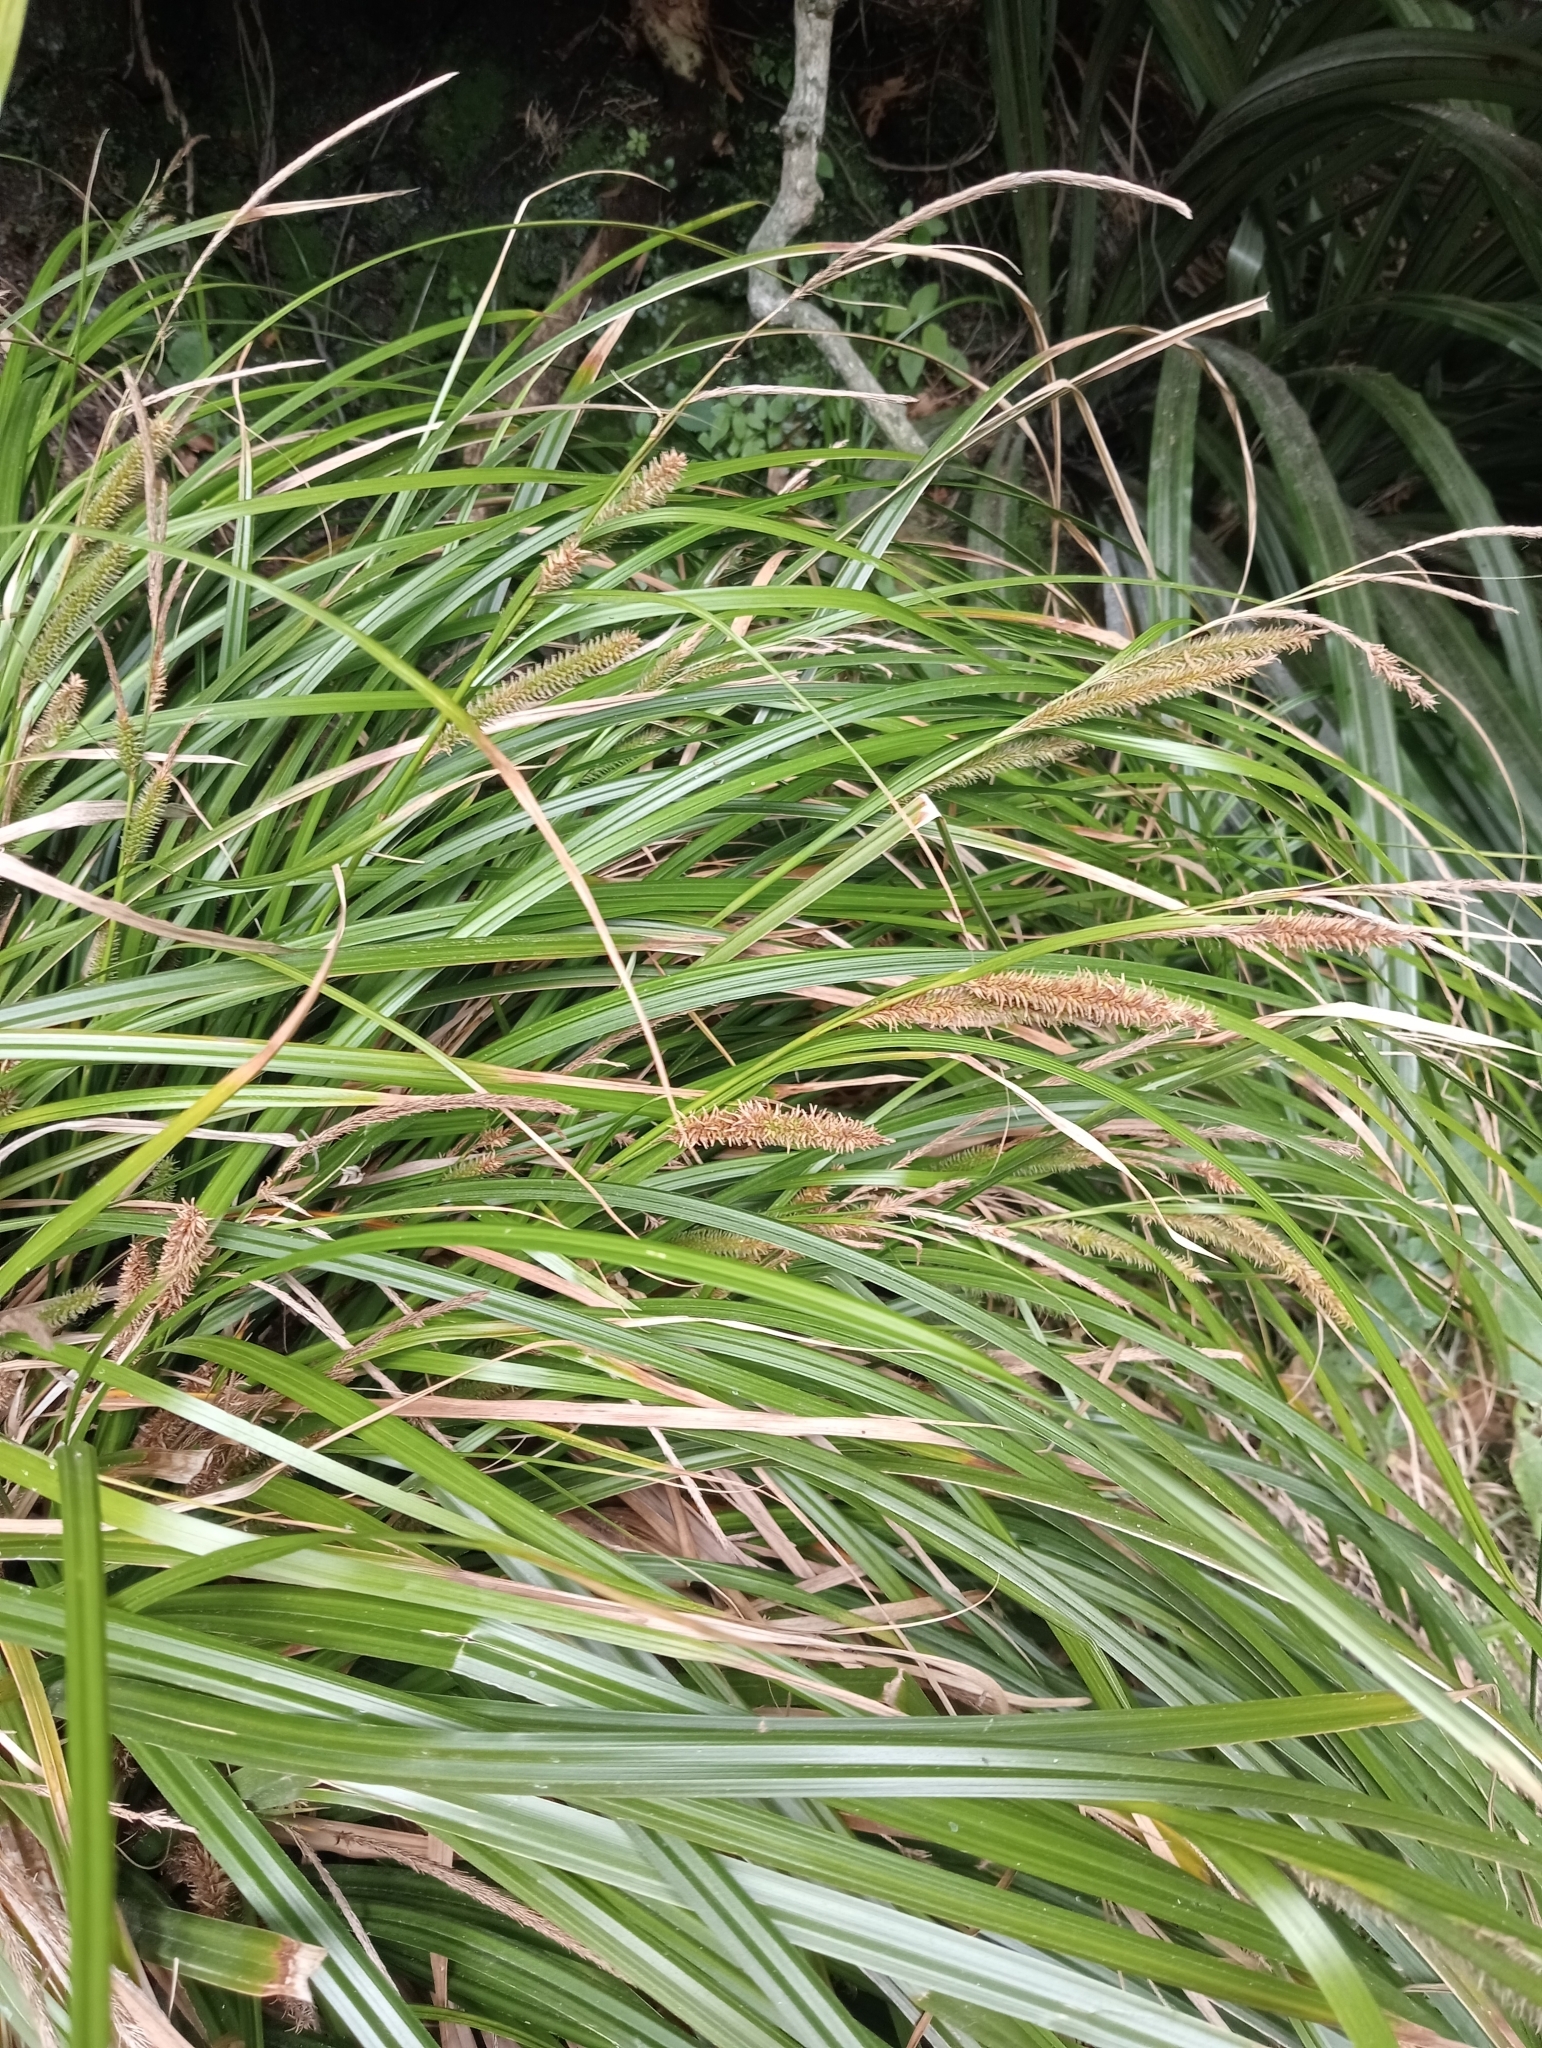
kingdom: Plantae
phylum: Tracheophyta
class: Liliopsida
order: Poales
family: Cyperaceae
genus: Carex
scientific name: Carex forsteri
